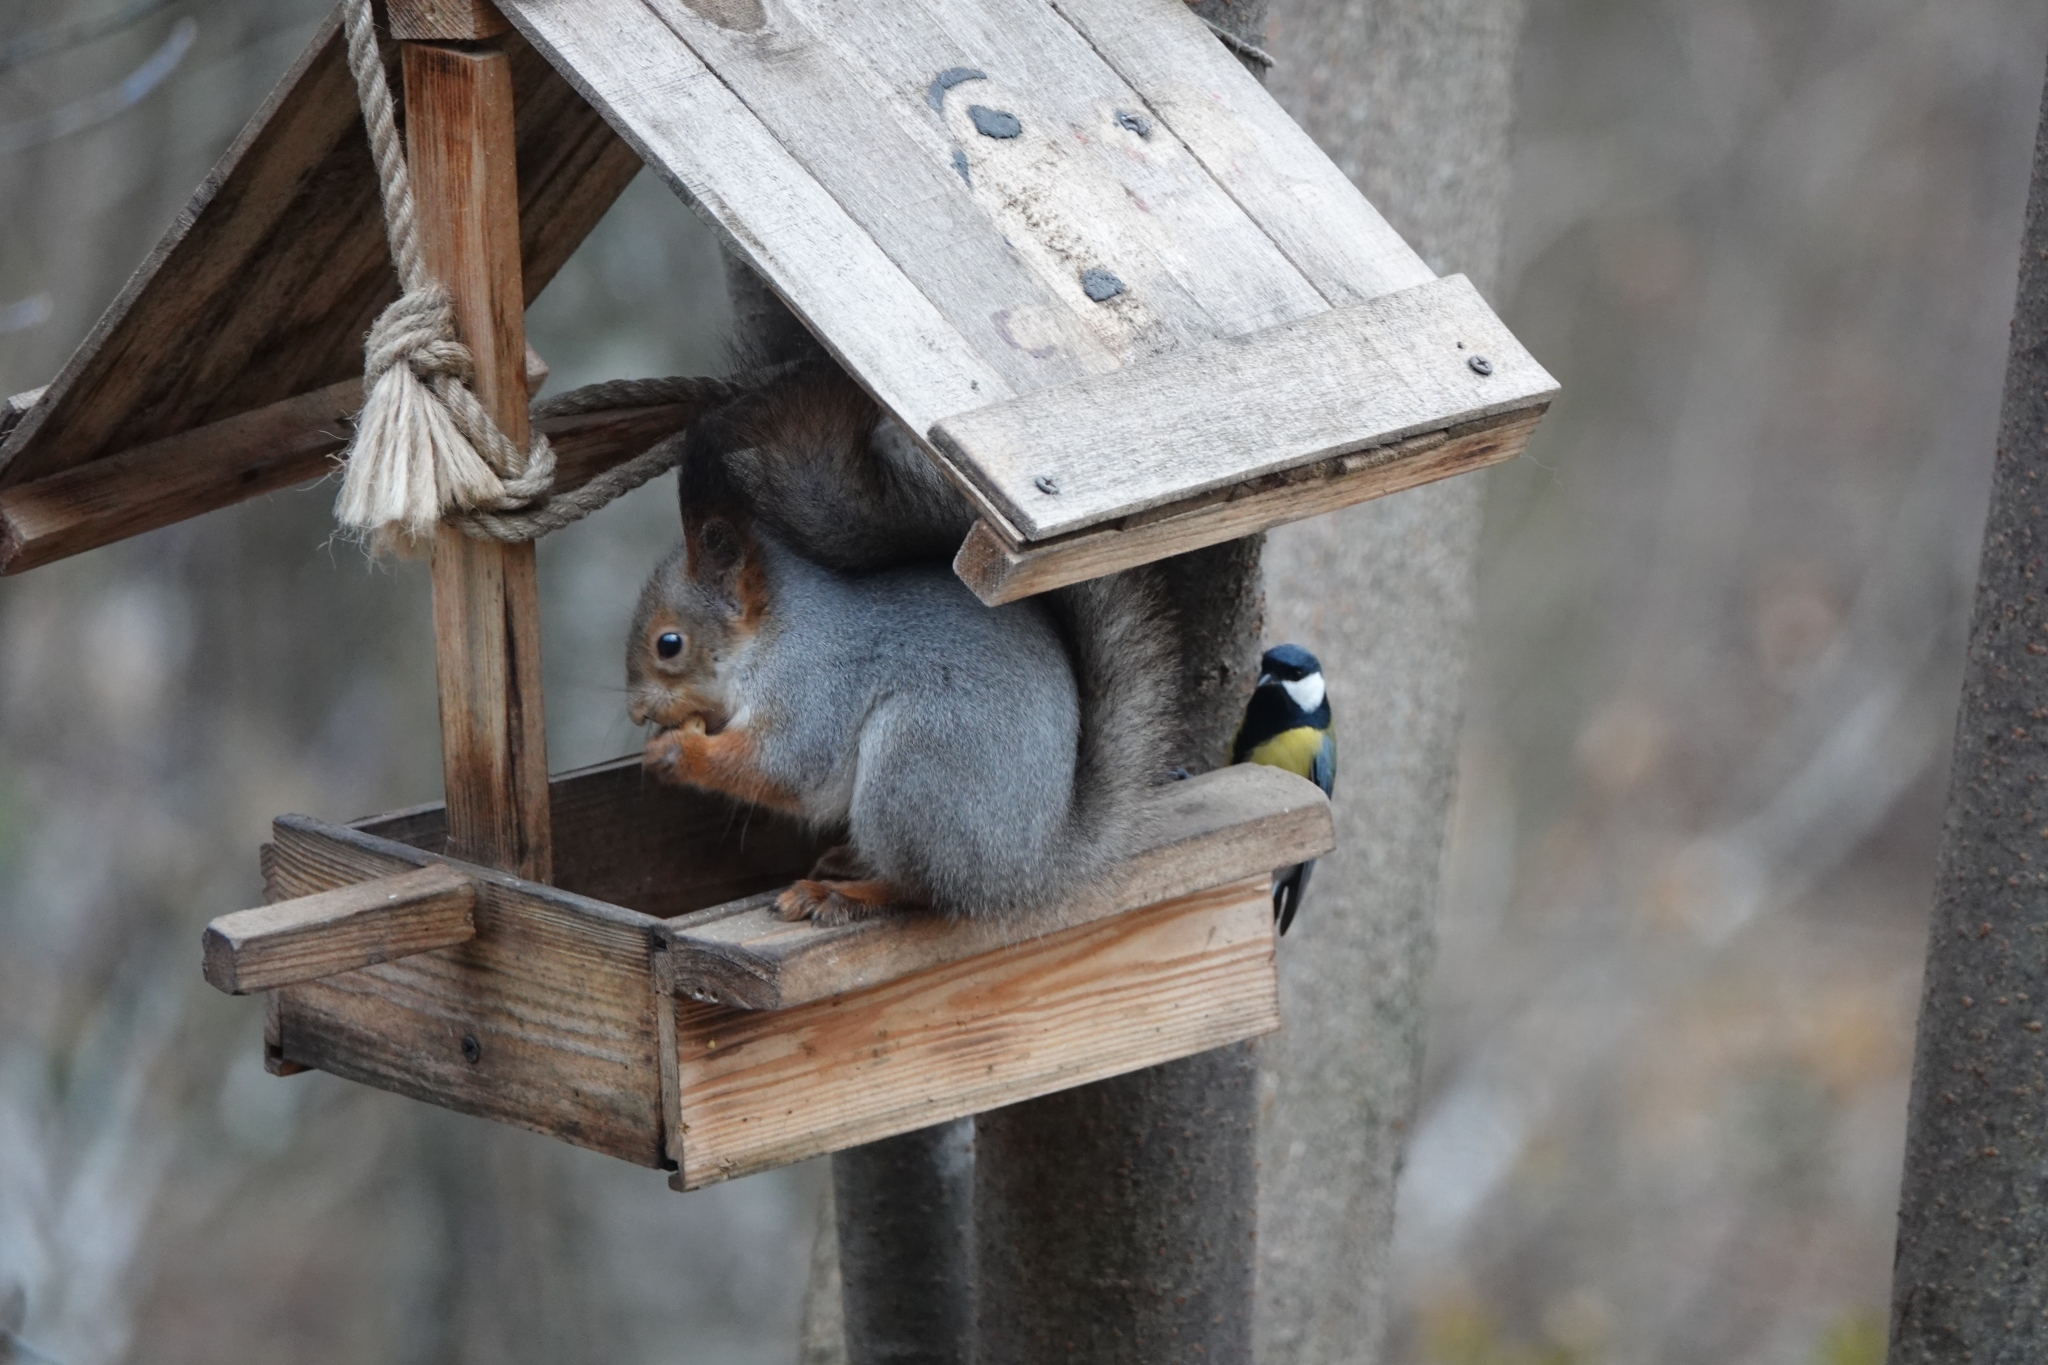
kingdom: Animalia
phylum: Chordata
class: Mammalia
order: Rodentia
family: Sciuridae
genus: Sciurus
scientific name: Sciurus vulgaris
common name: Eurasian red squirrel
